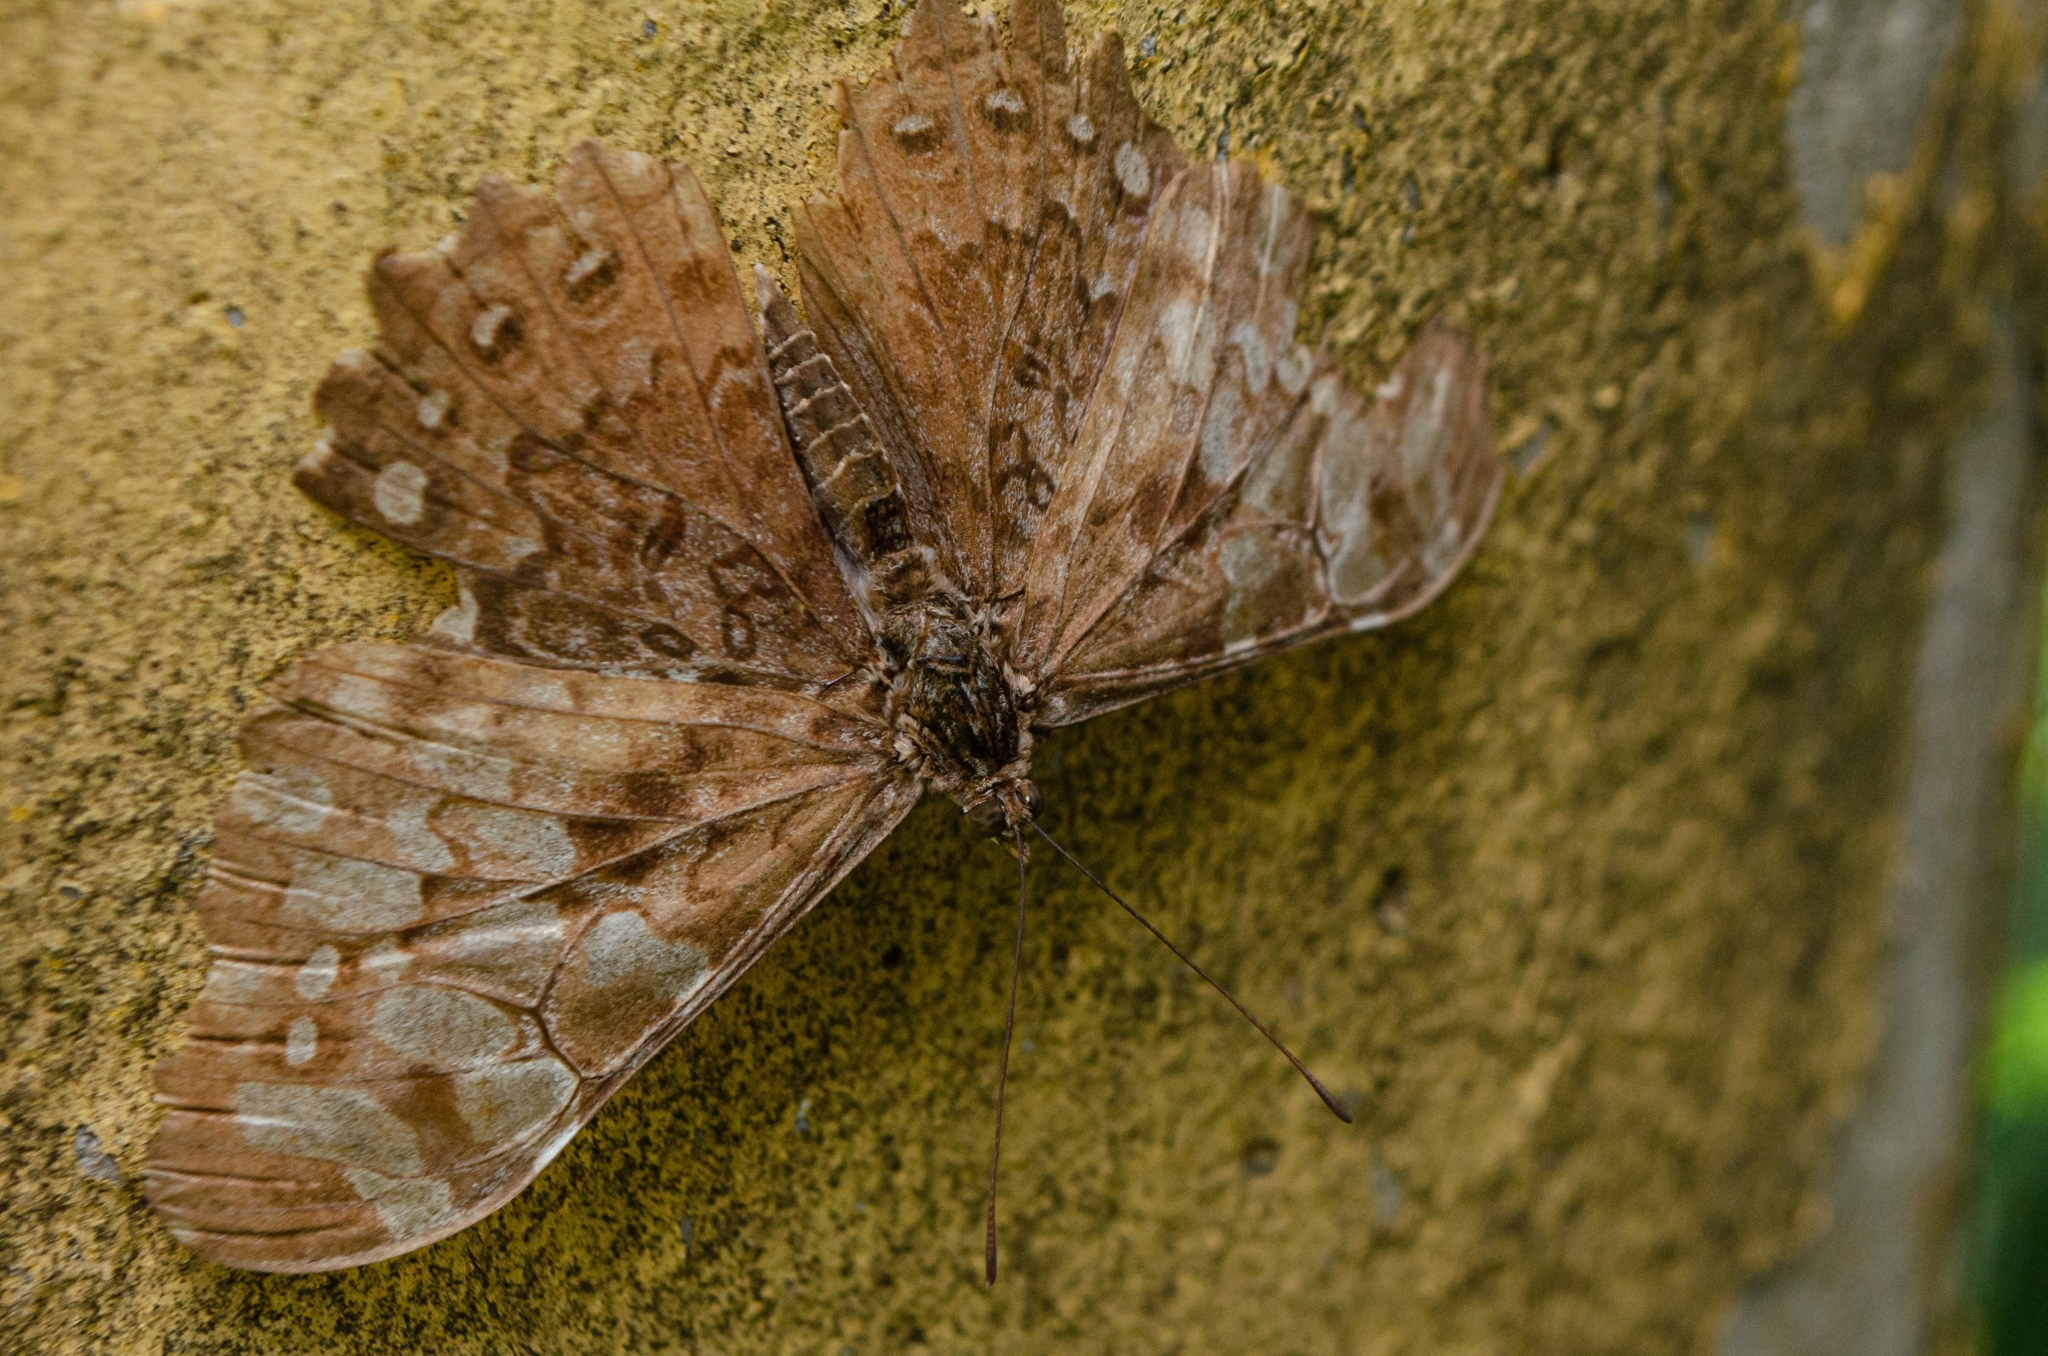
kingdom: Animalia
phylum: Arthropoda
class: Insecta
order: Lepidoptera
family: Nymphalidae
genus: Hamadryas
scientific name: Hamadryas epinome
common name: Epinome cracker
